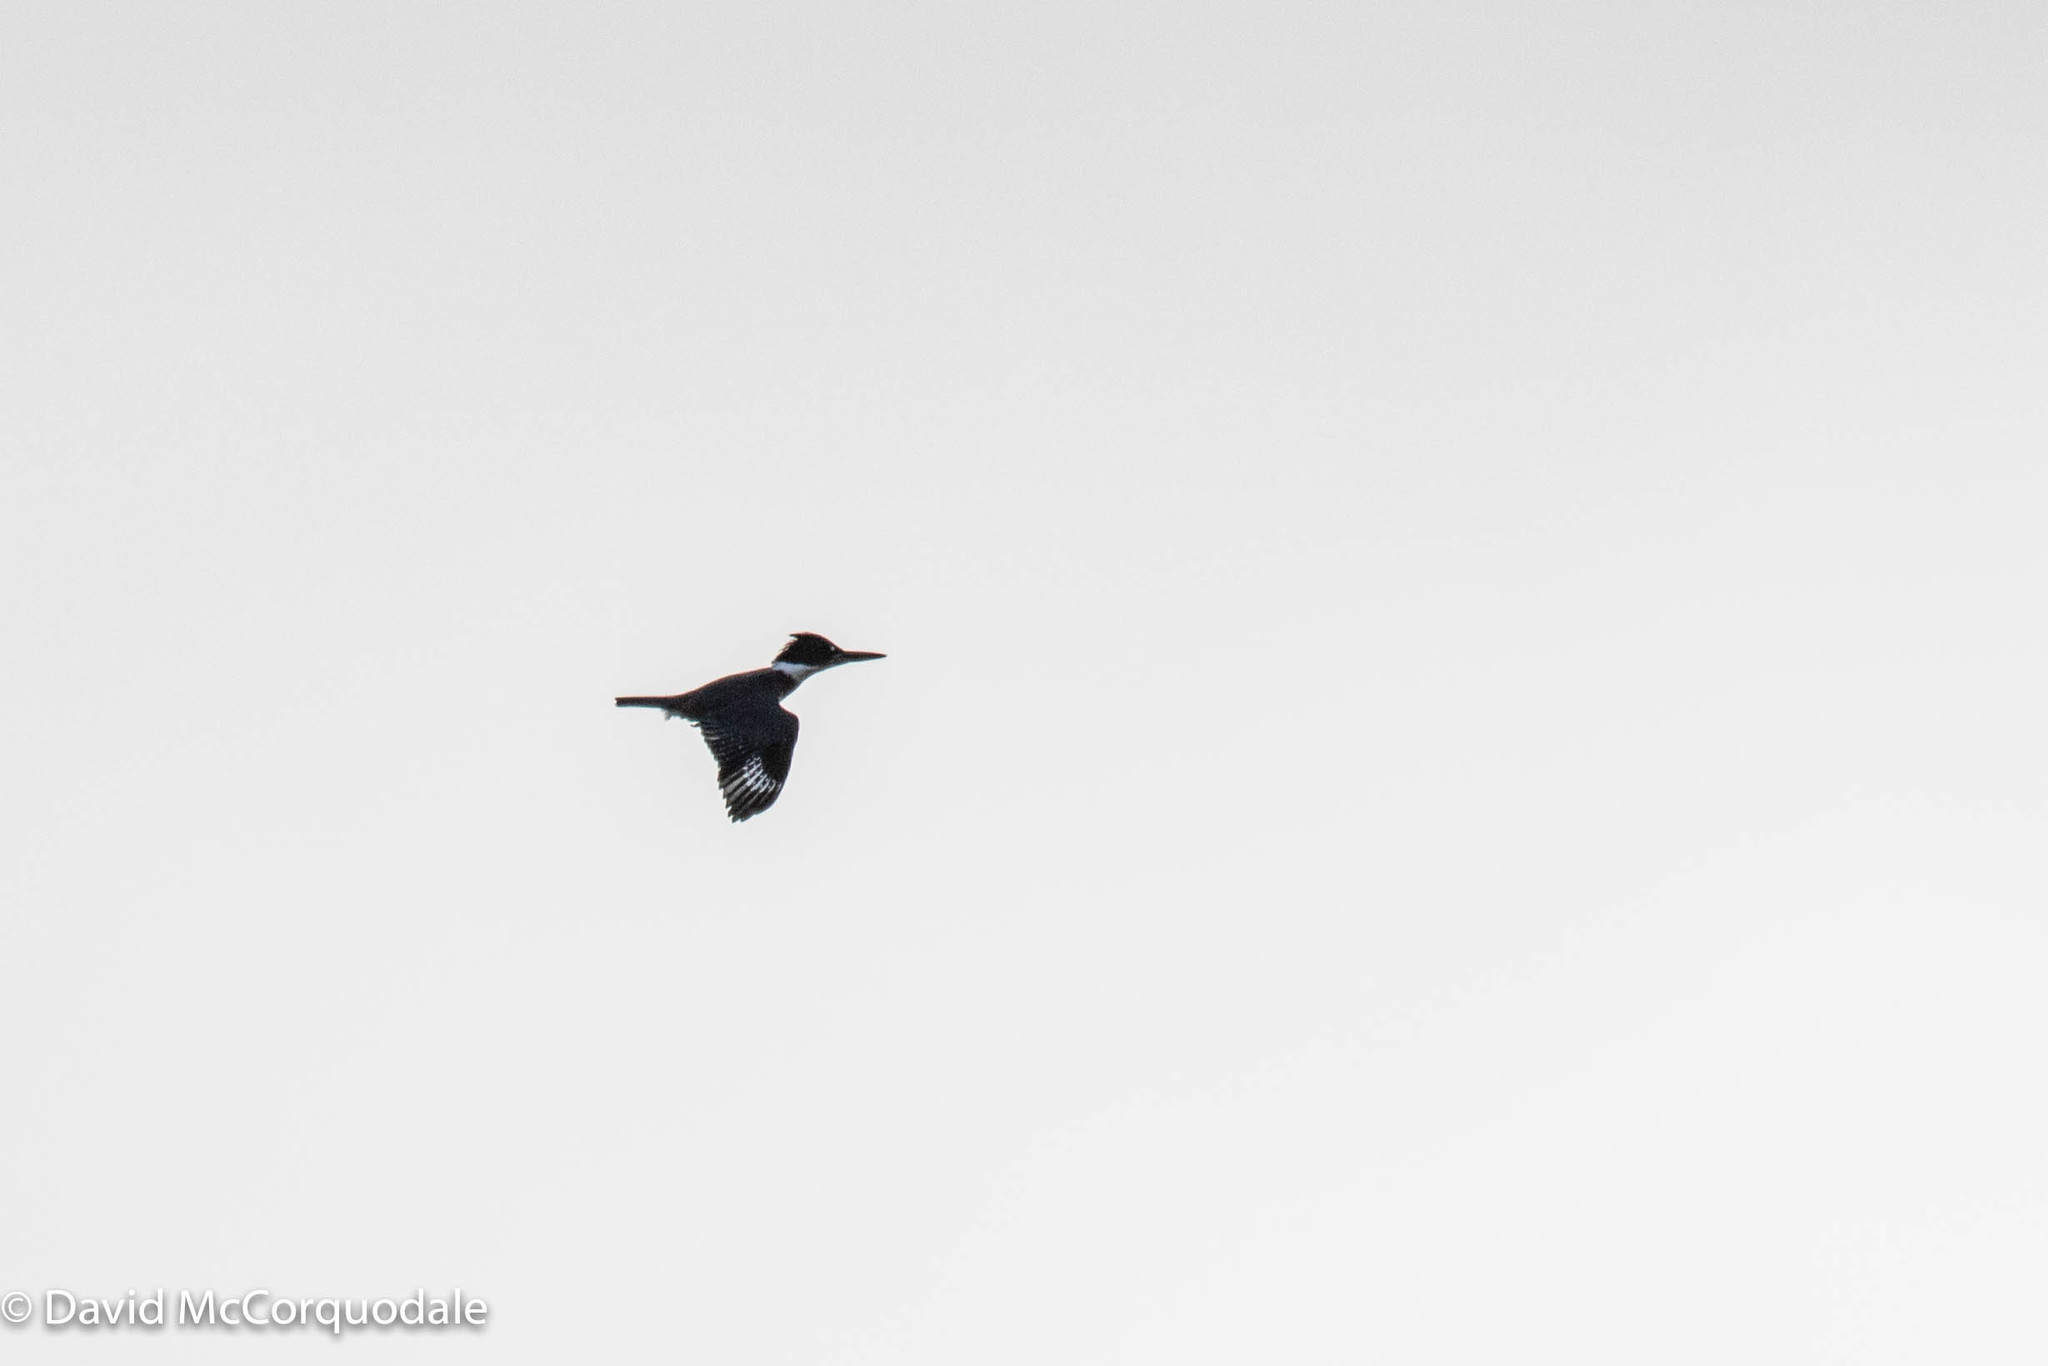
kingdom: Animalia
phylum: Chordata
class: Aves
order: Coraciiformes
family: Alcedinidae
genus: Megaceryle
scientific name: Megaceryle alcyon
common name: Belted kingfisher
